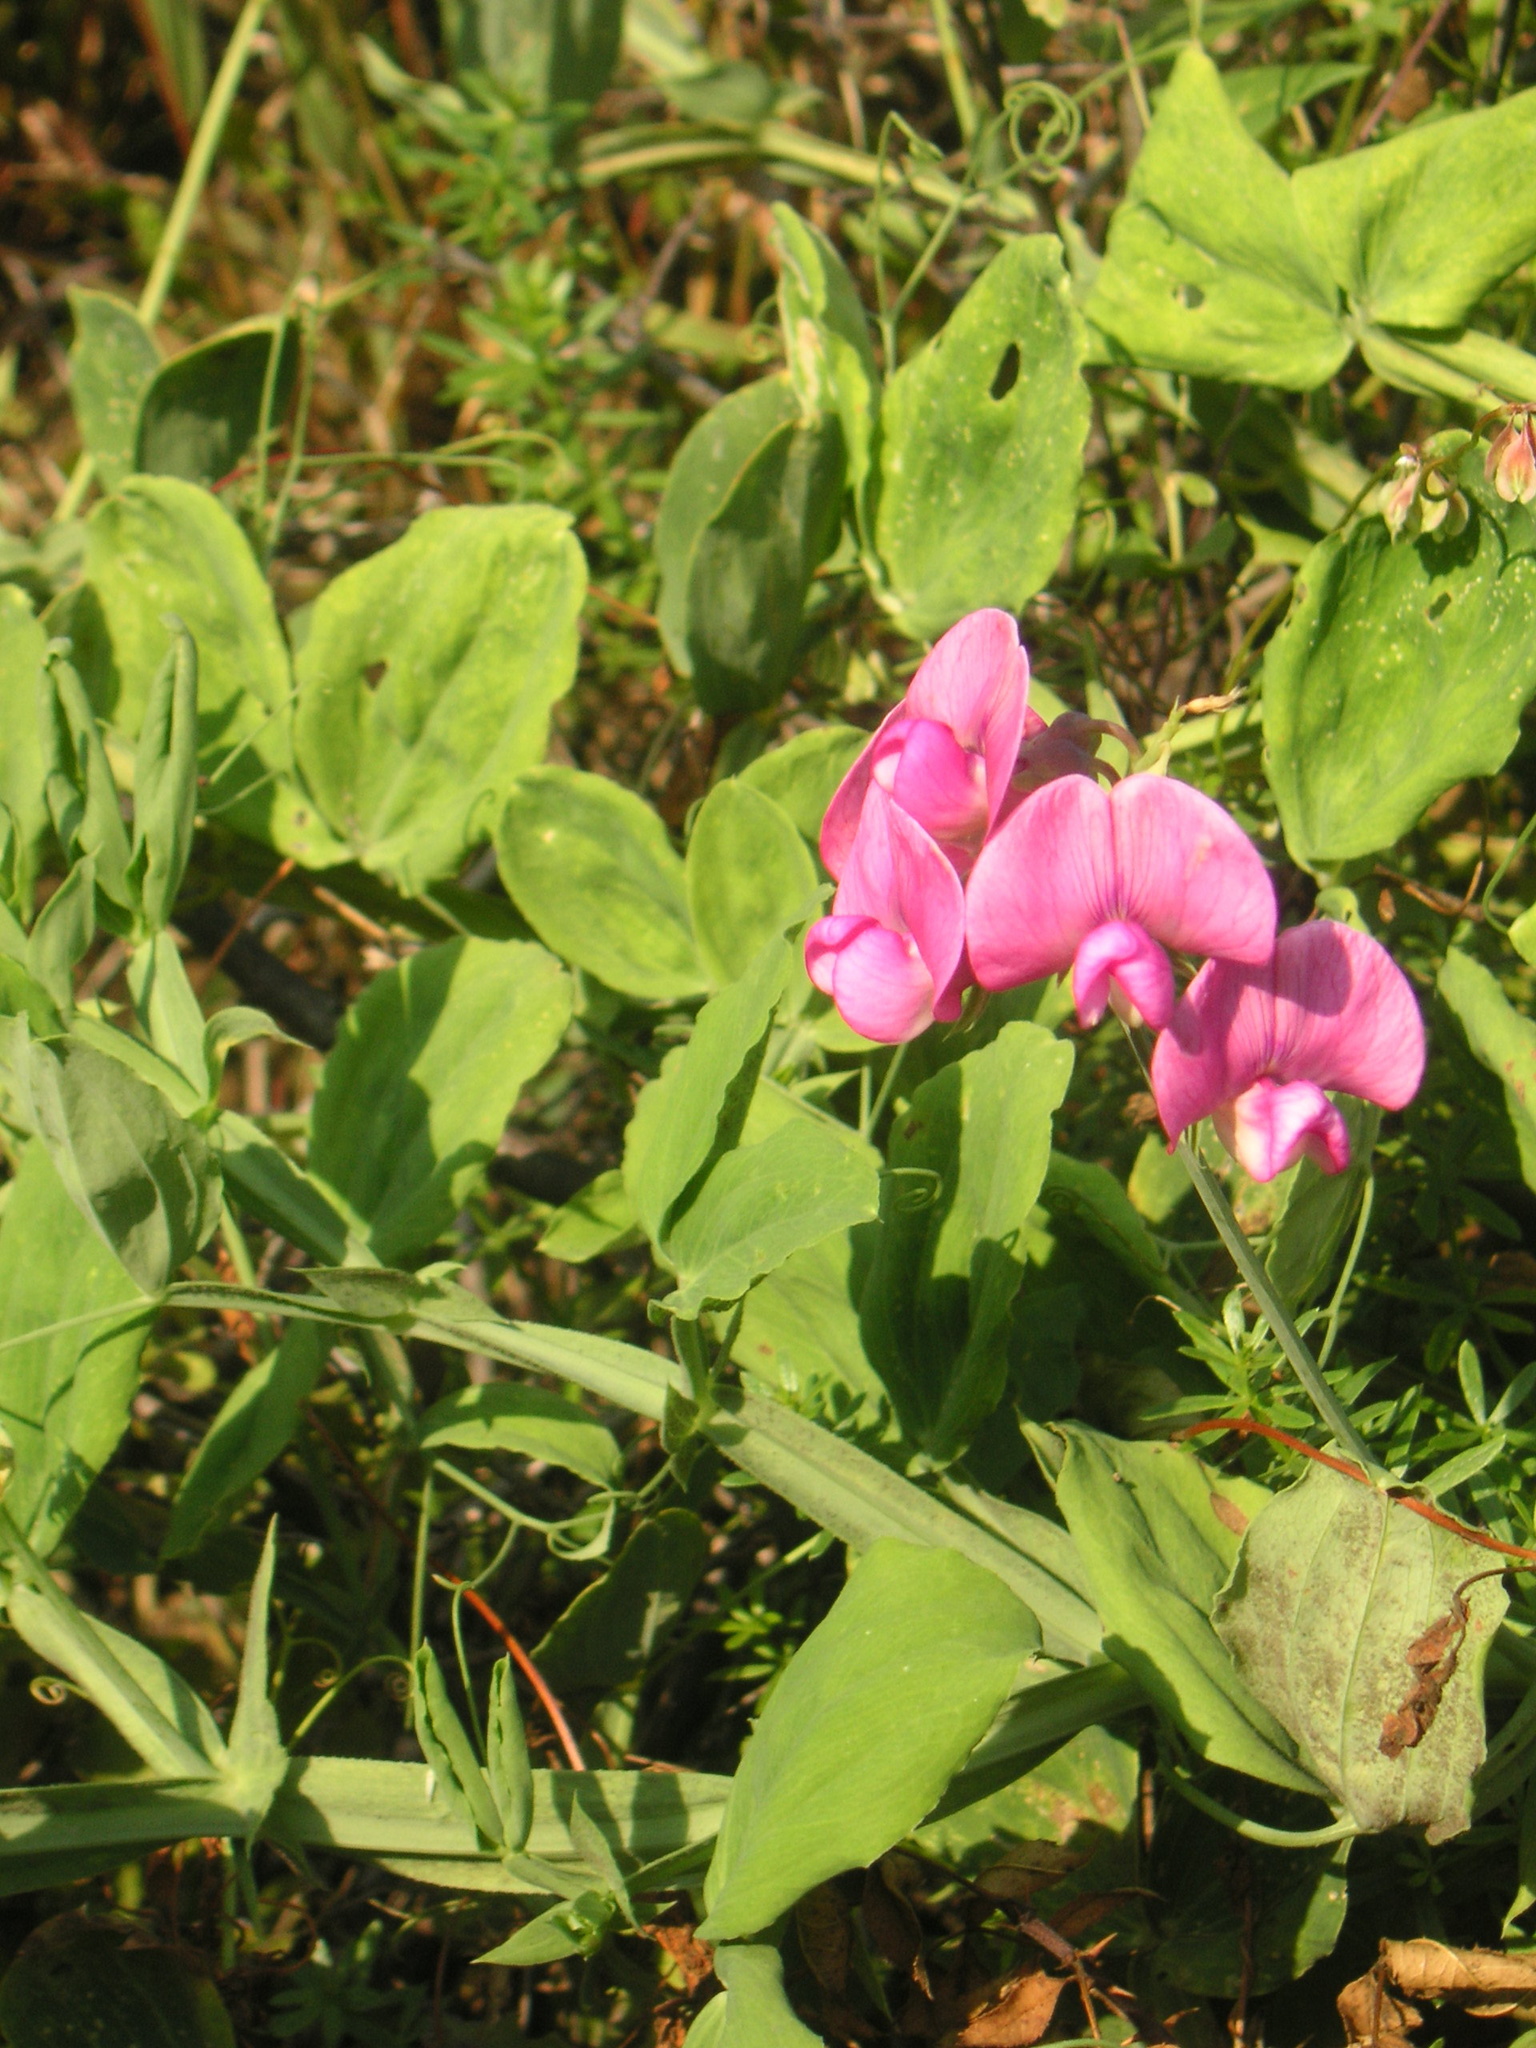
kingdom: Plantae
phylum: Tracheophyta
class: Magnoliopsida
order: Fabales
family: Fabaceae
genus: Lathyrus
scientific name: Lathyrus latifolius
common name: Perennial pea
